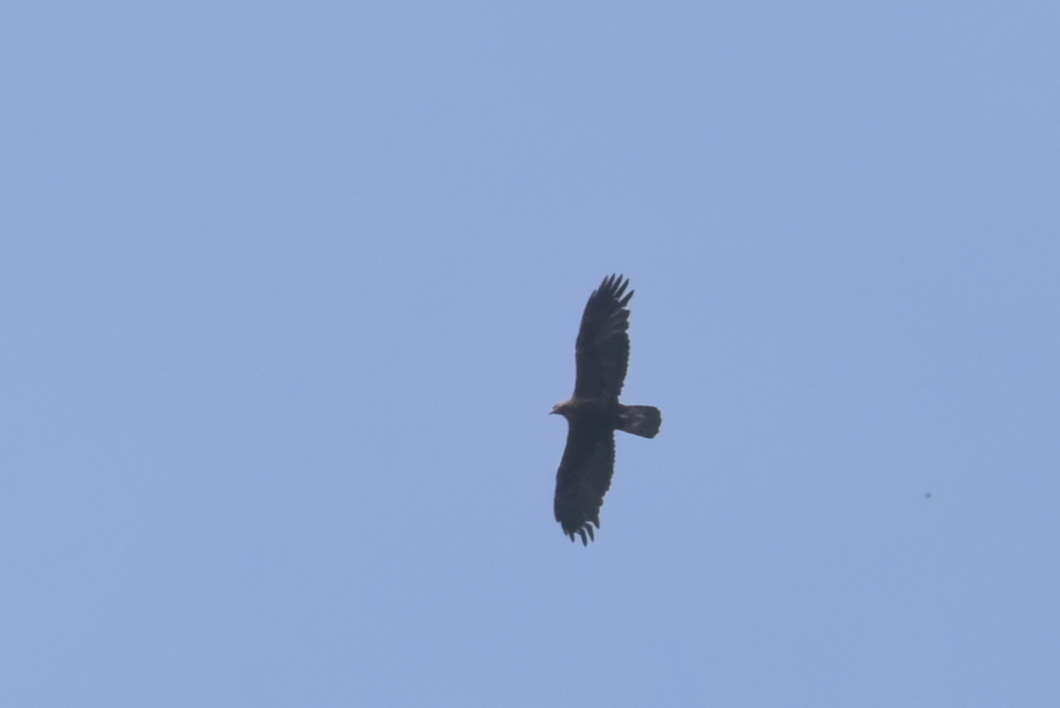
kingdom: Animalia
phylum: Chordata
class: Aves
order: Accipitriformes
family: Accipitridae
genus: Aquila
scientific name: Aquila chrysaetos
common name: Golden eagle
